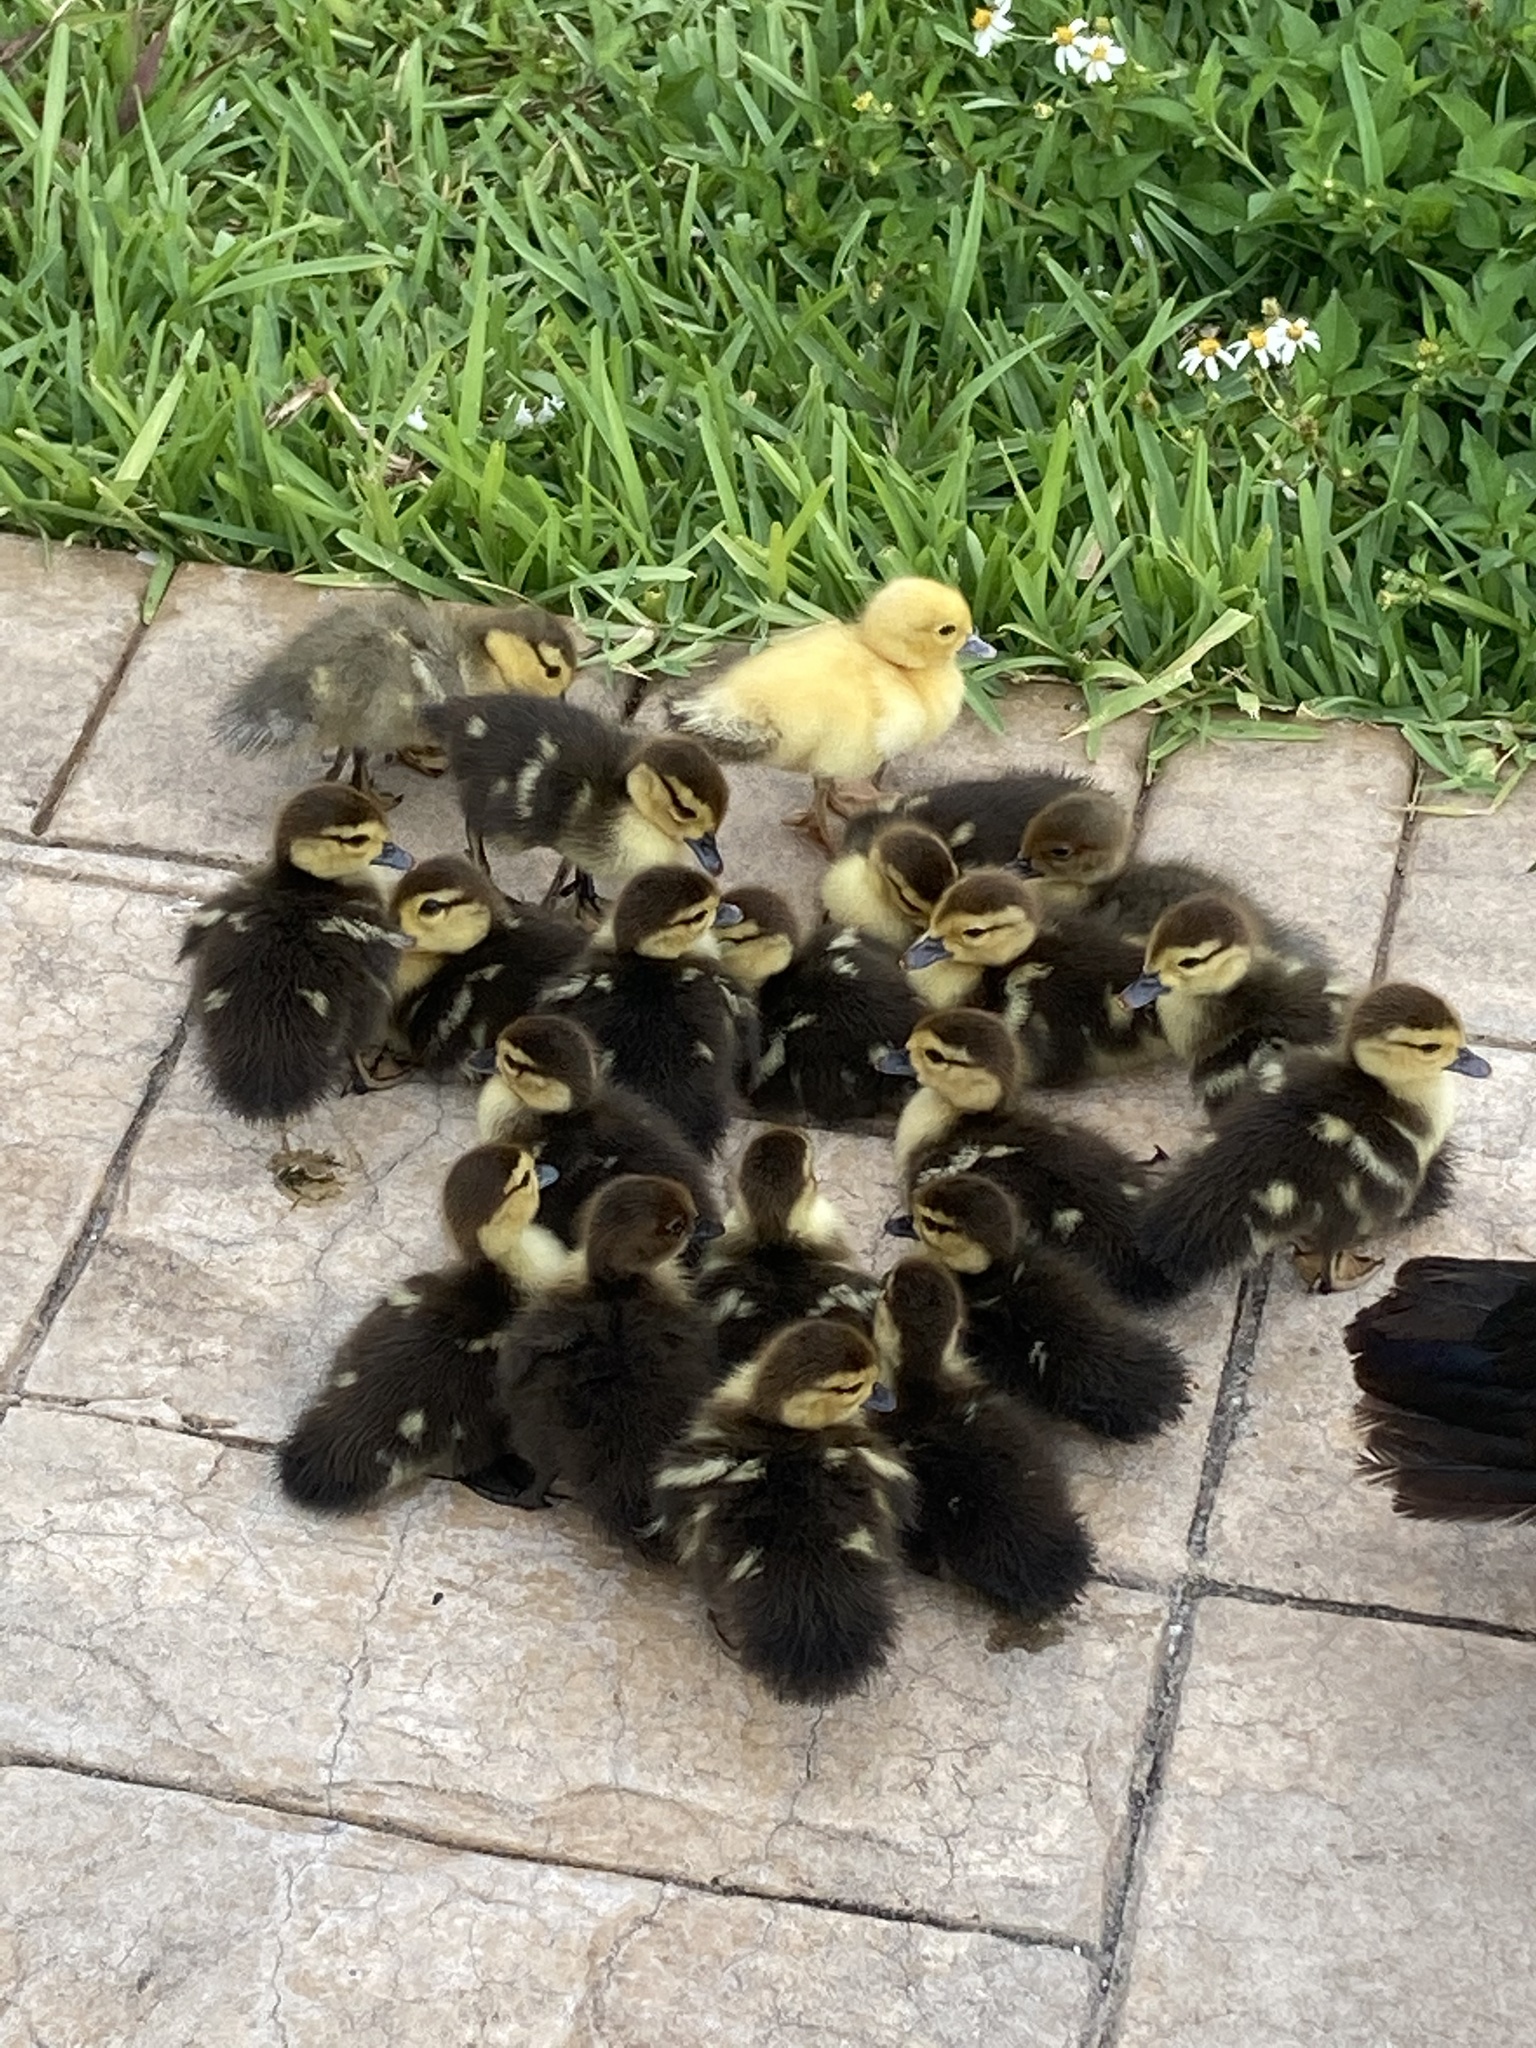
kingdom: Animalia
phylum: Chordata
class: Aves
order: Anseriformes
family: Anatidae
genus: Cairina
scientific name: Cairina moschata
